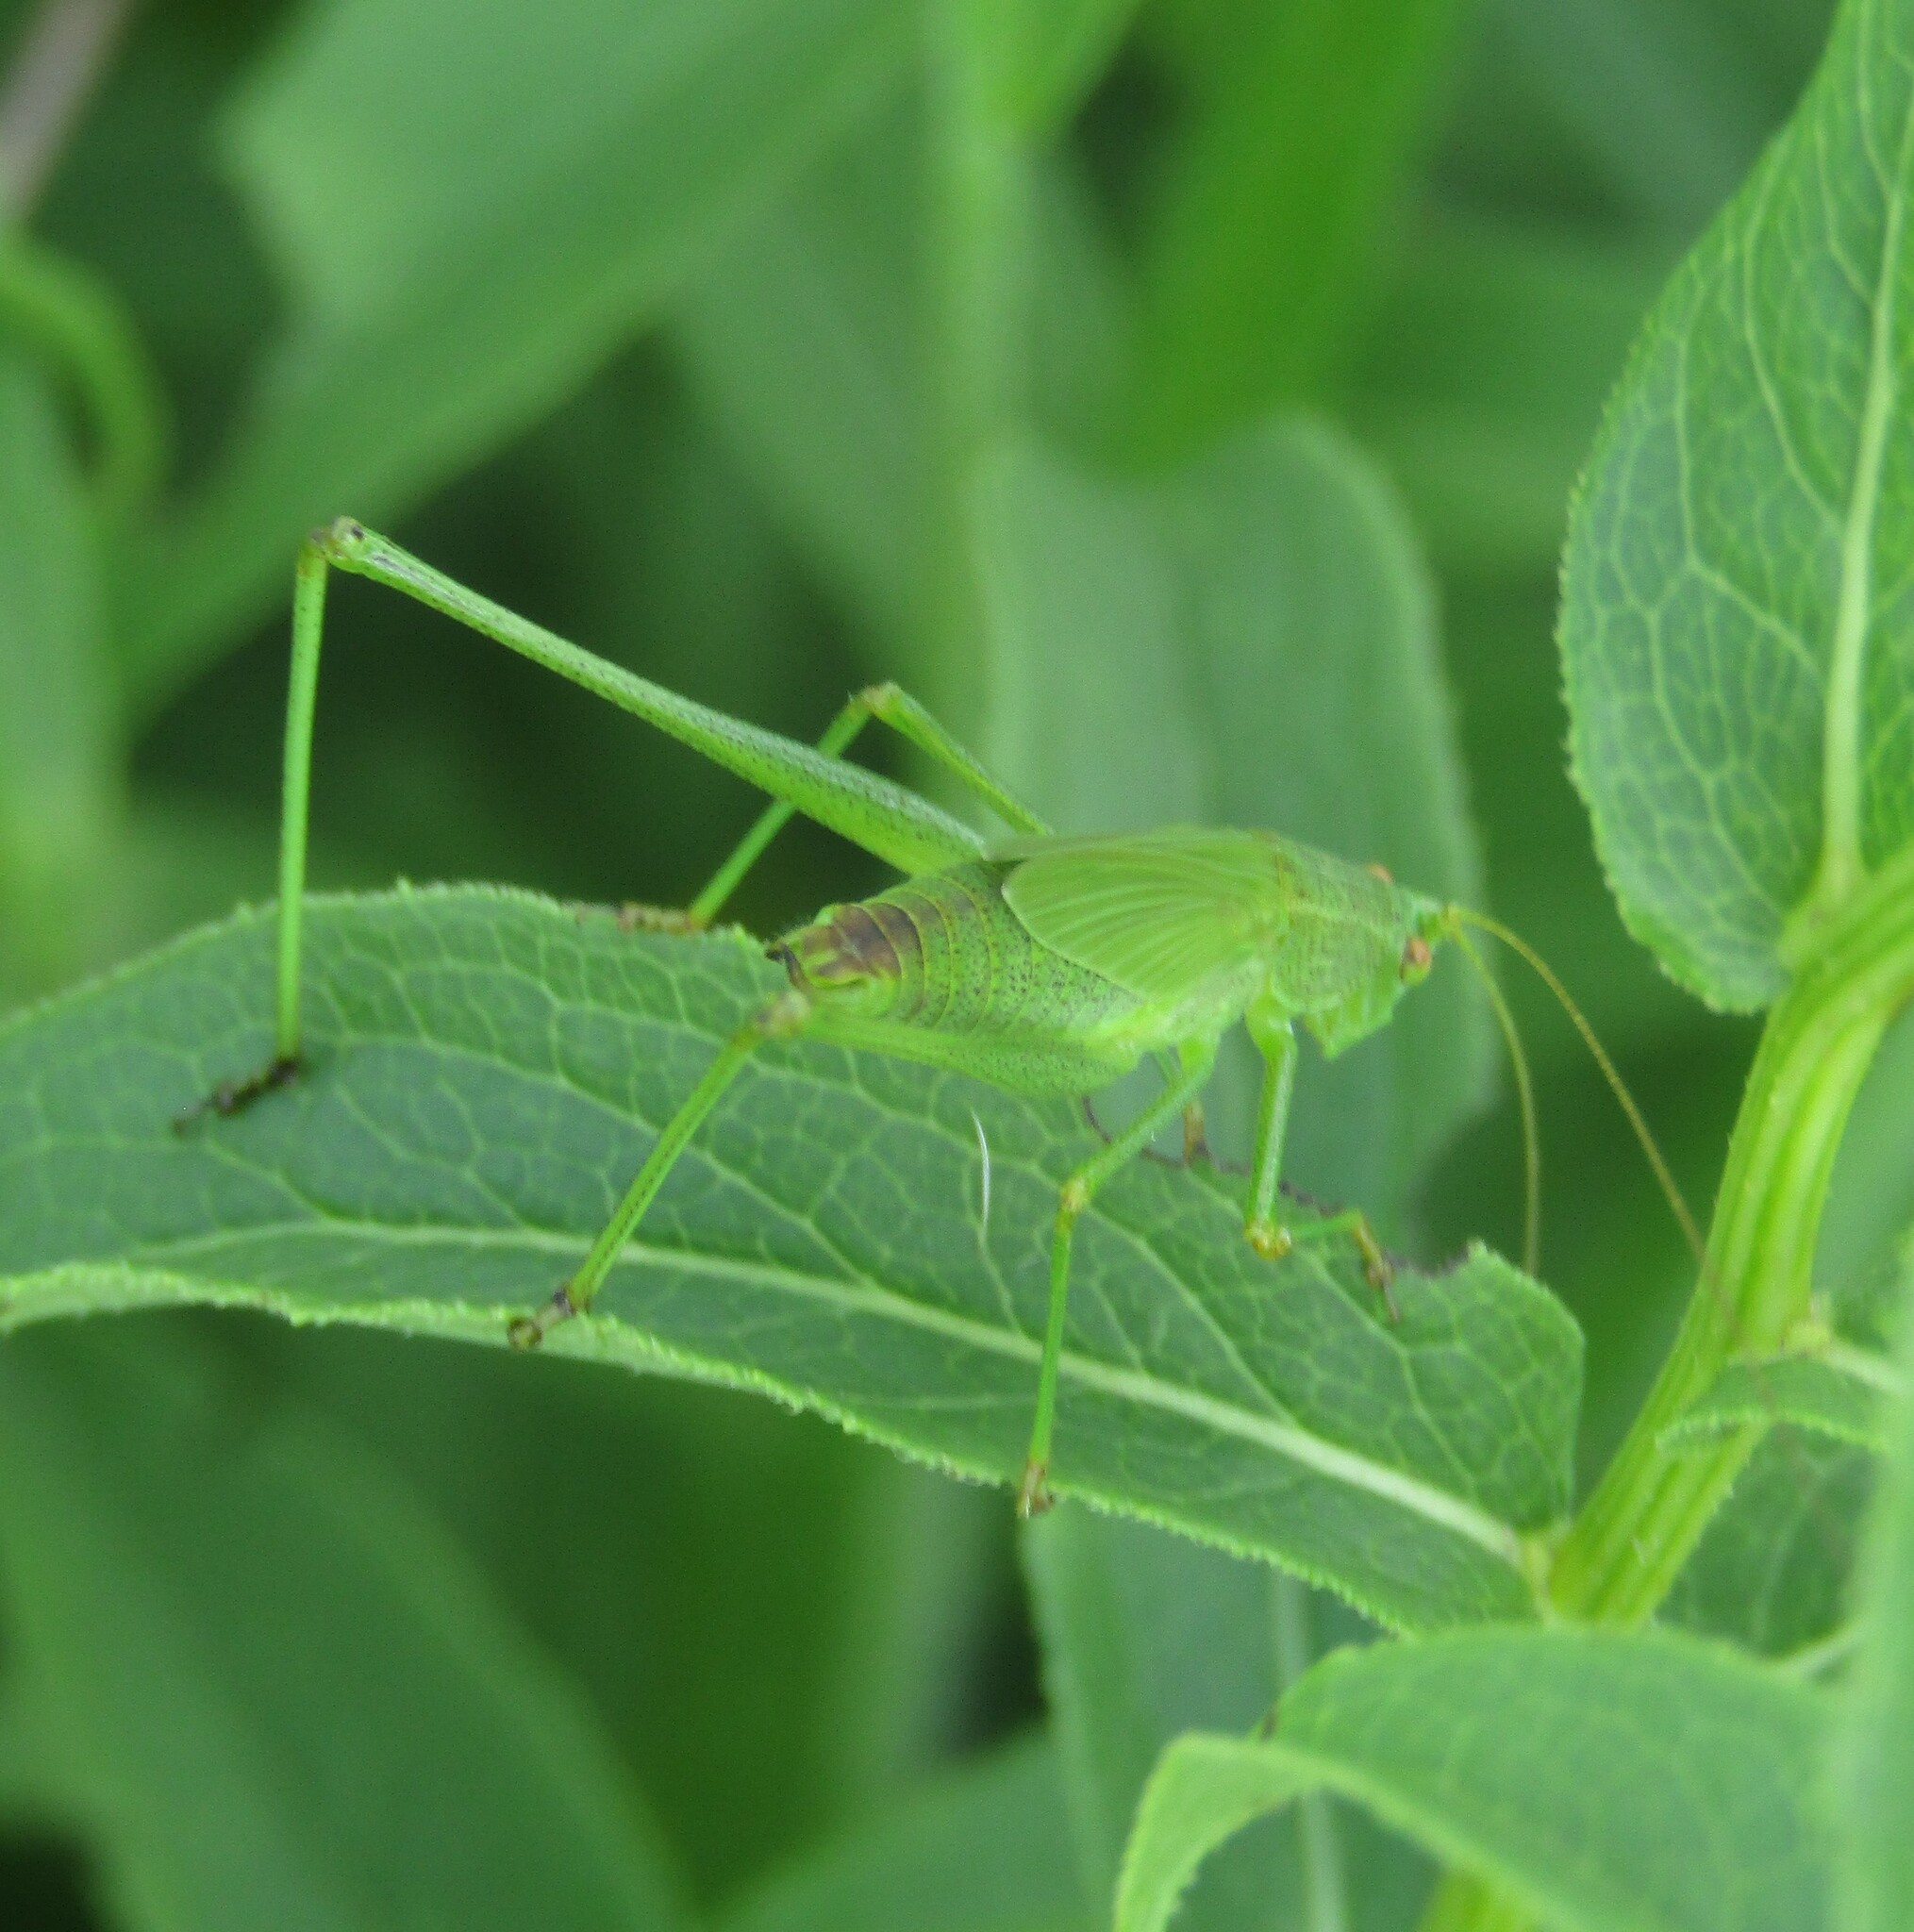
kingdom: Animalia
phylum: Arthropoda
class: Insecta
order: Orthoptera
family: Tettigoniidae
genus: Phaneroptera
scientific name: Phaneroptera falcata
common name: Sickle-bearing bush-cricket
